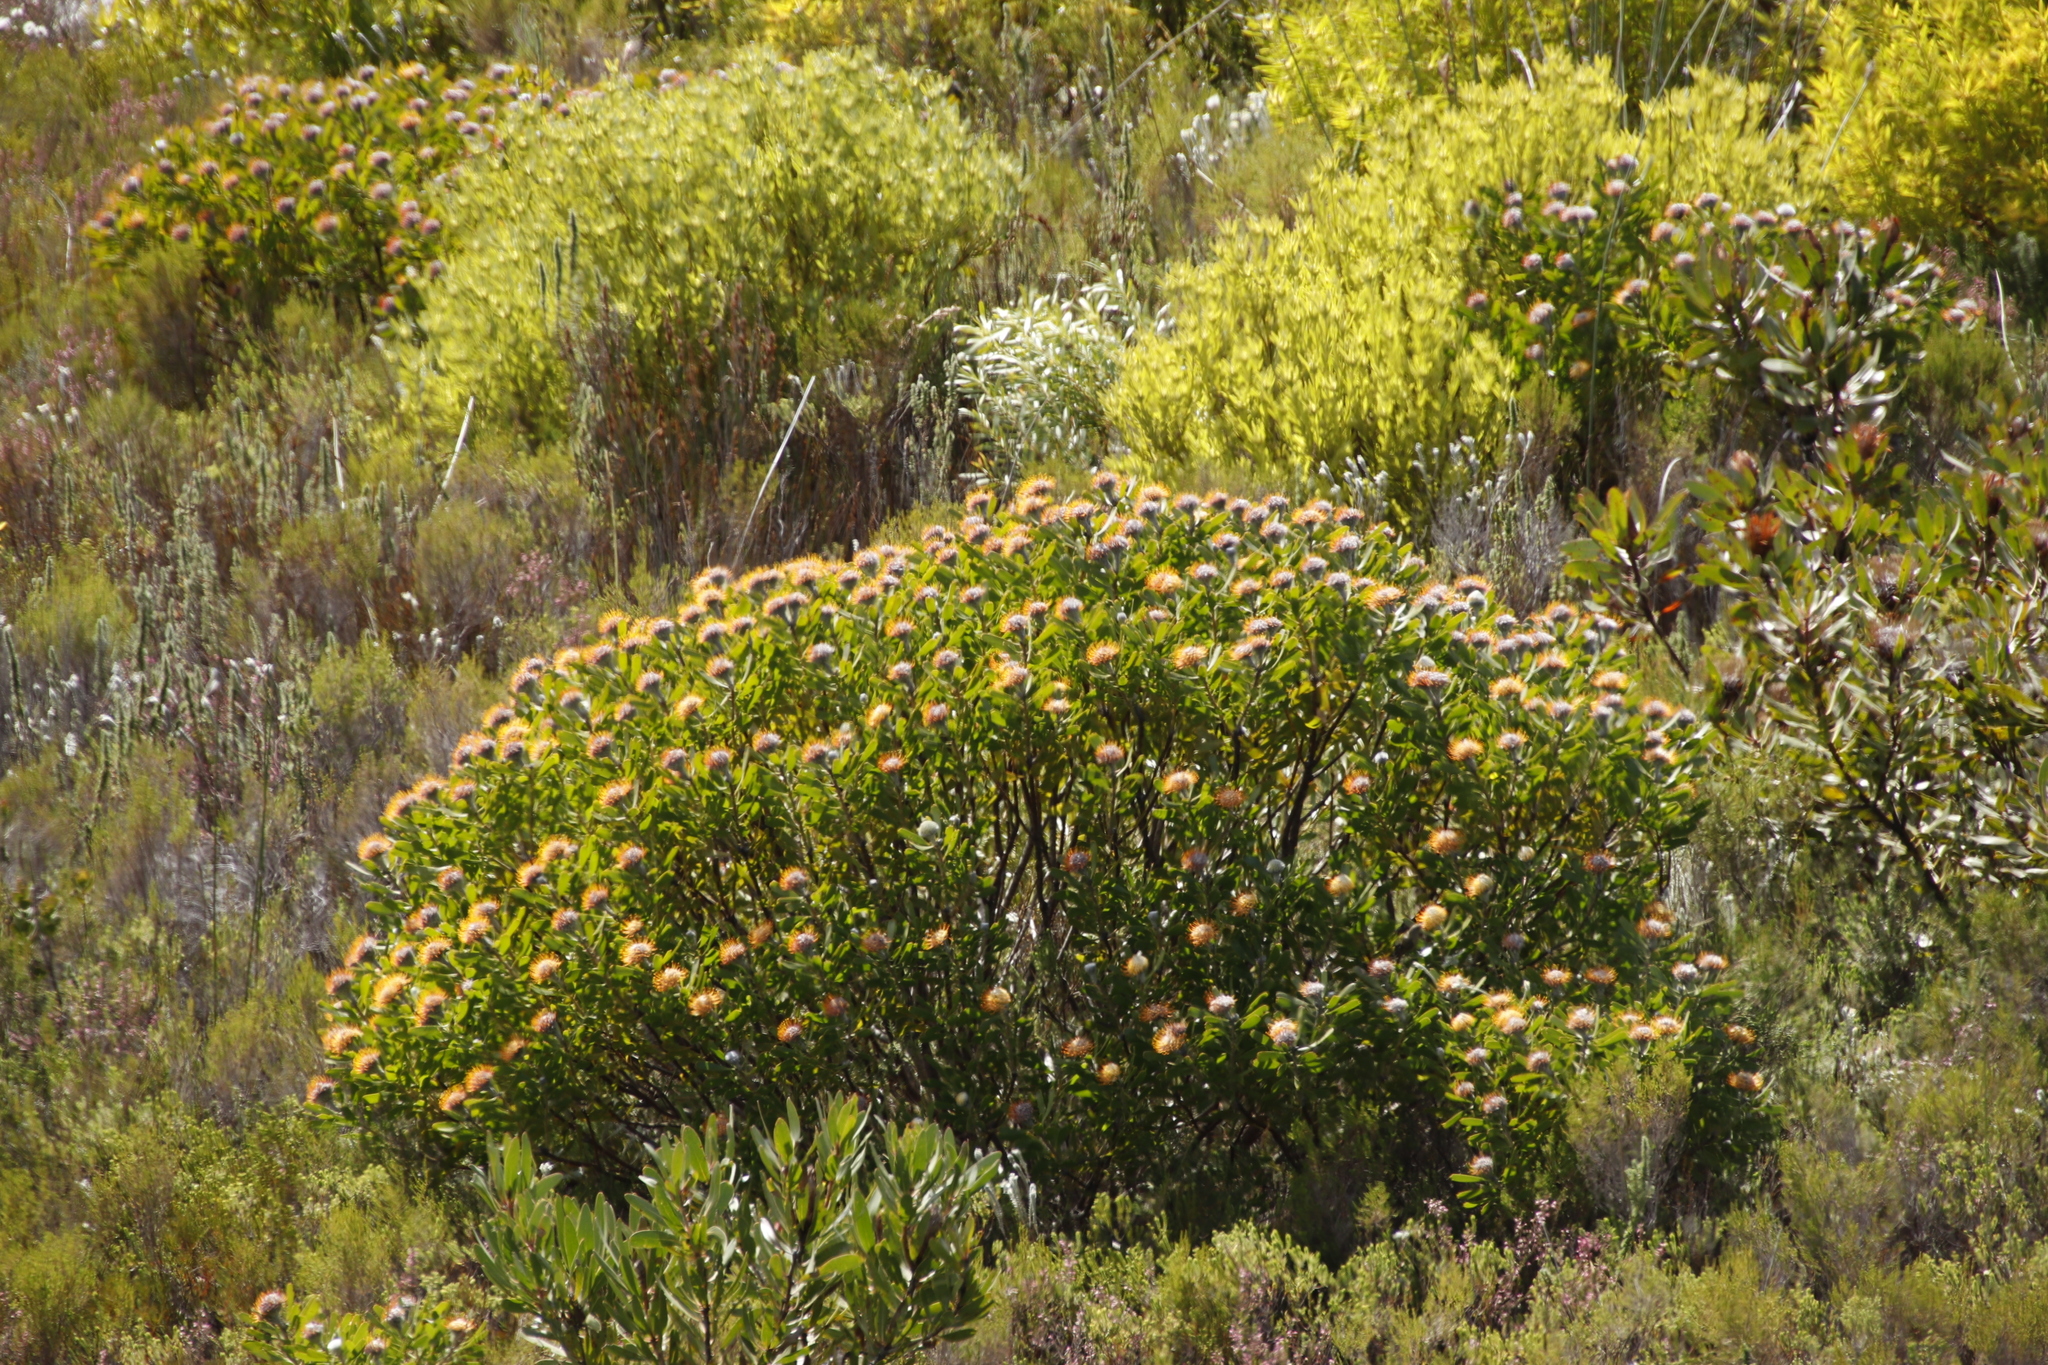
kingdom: Plantae
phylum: Tracheophyta
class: Magnoliopsida
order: Proteales
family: Proteaceae
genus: Leucospermum
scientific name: Leucospermum truncatum
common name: Limestone pincushion
